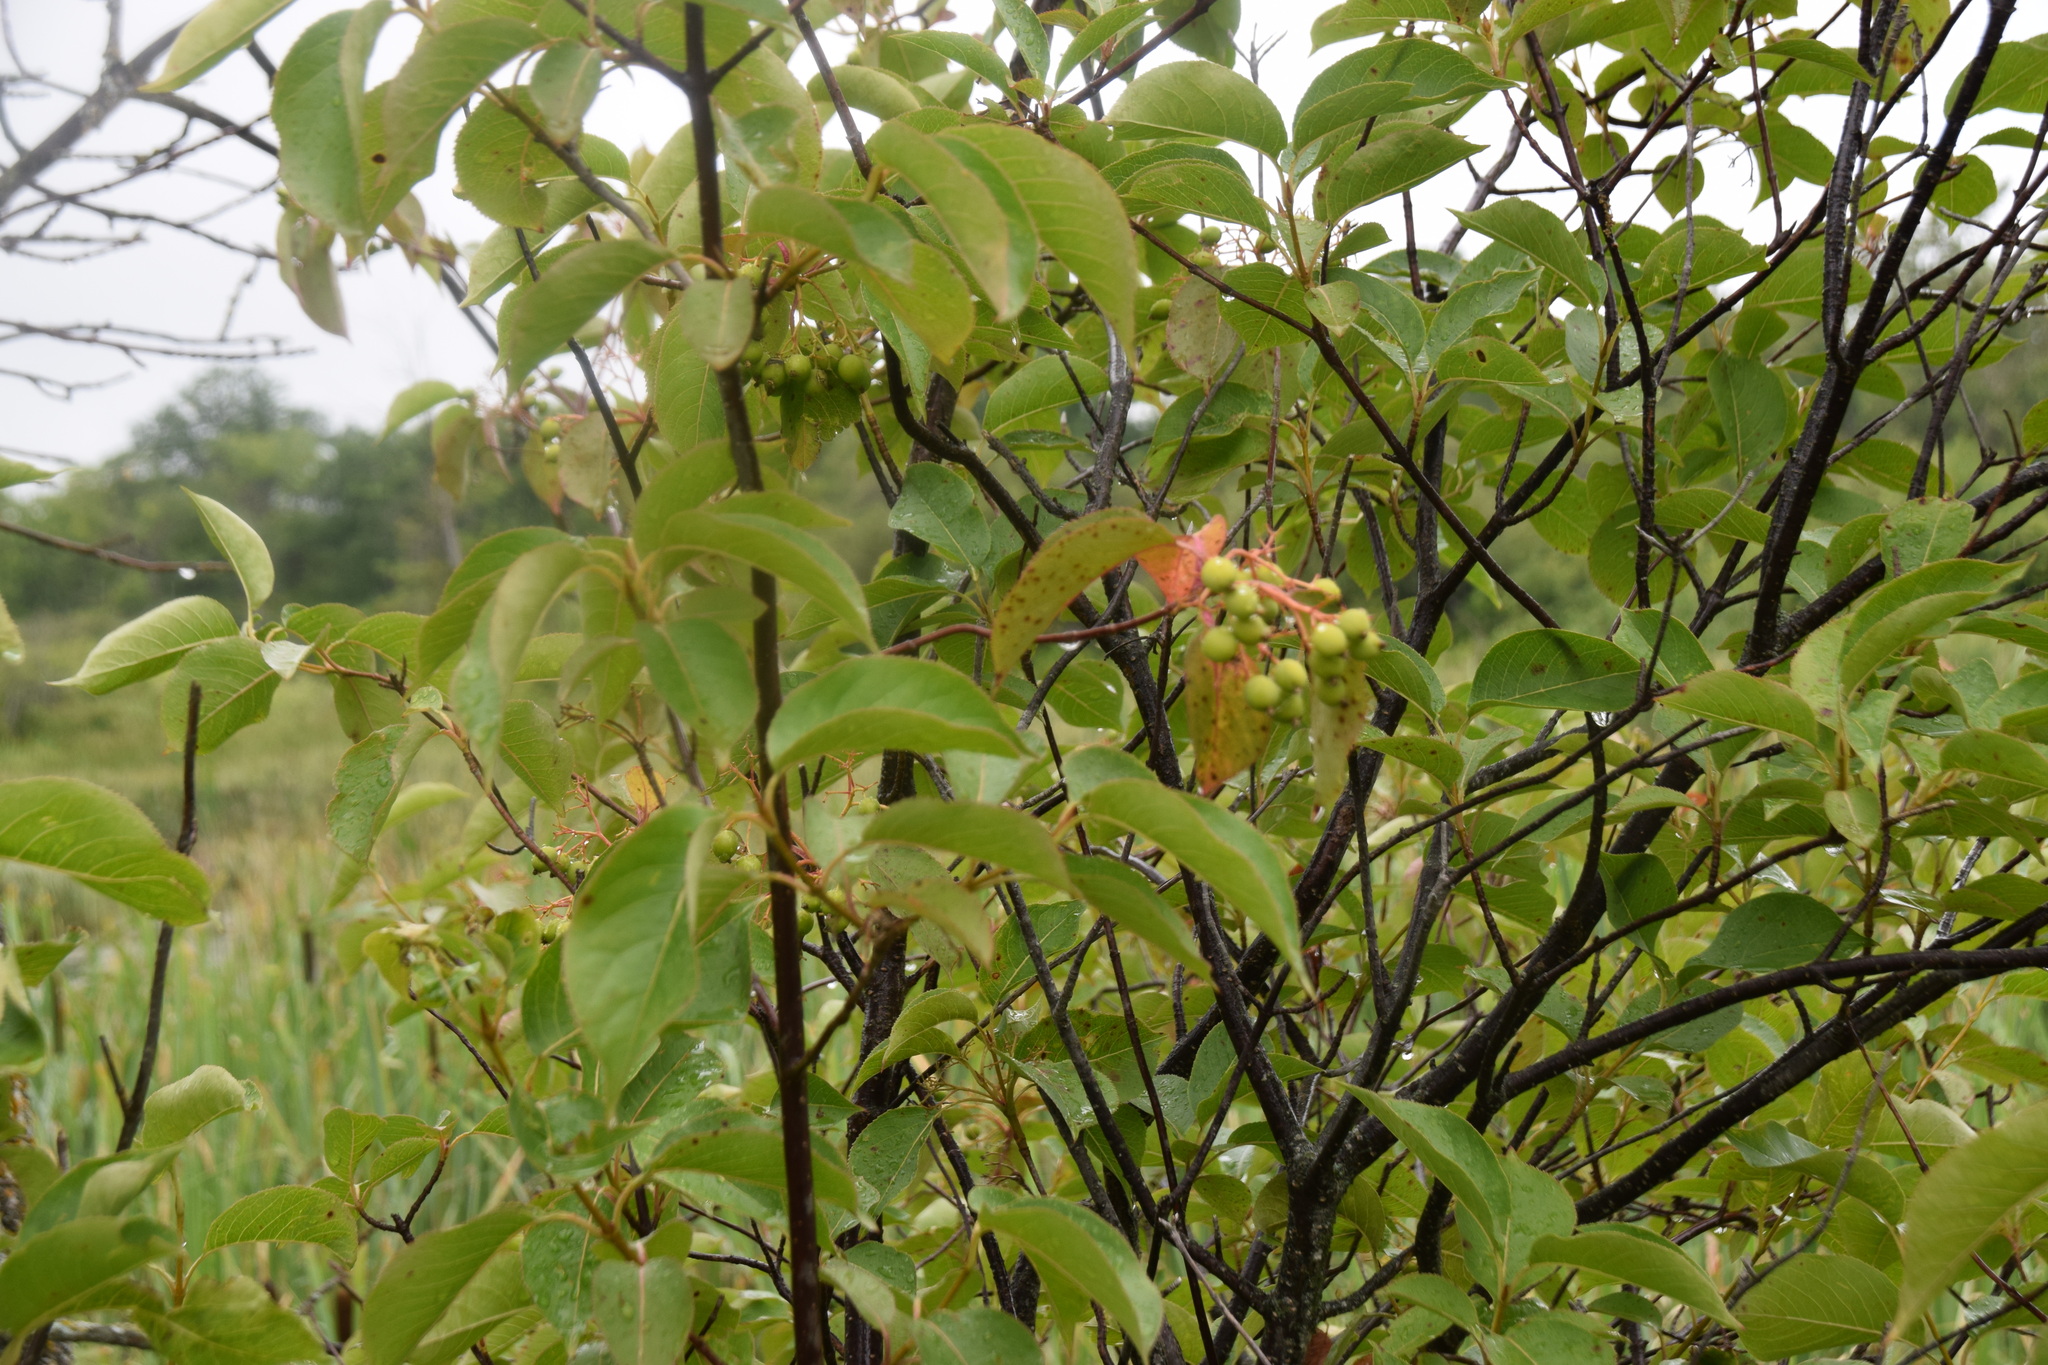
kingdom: Plantae
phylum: Tracheophyta
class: Magnoliopsida
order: Dipsacales
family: Viburnaceae
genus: Viburnum
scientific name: Viburnum lentago
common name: Black haw
